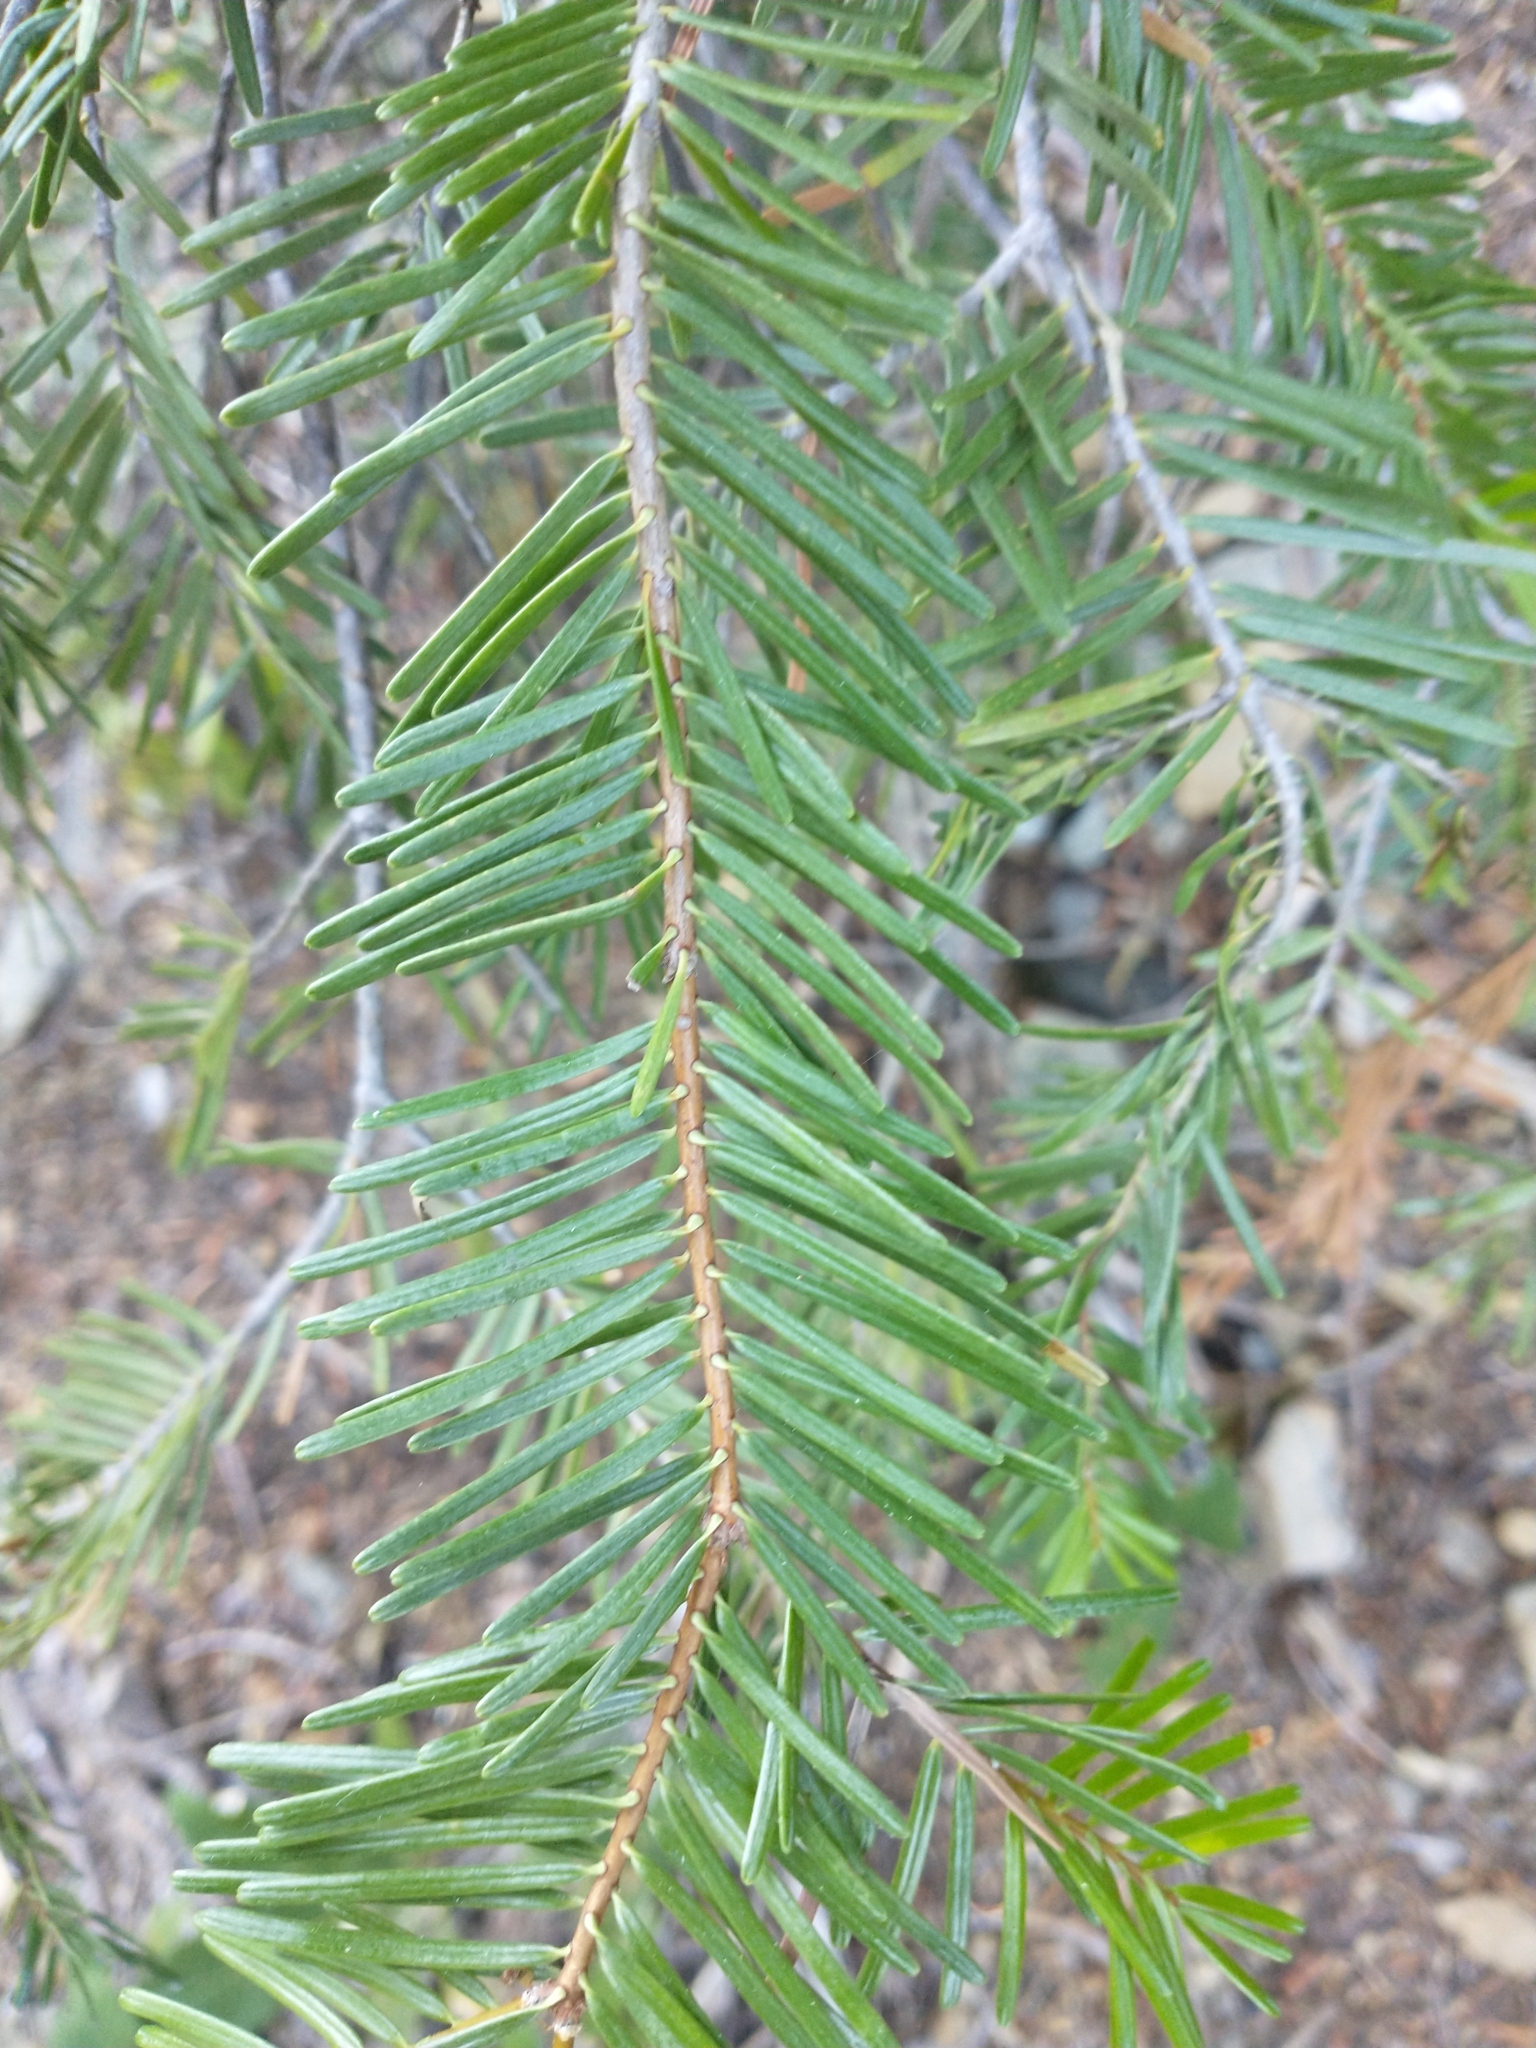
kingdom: Plantae
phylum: Tracheophyta
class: Pinopsida
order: Pinales
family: Pinaceae
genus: Abies
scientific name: Abies concolor
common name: Colorado fir
